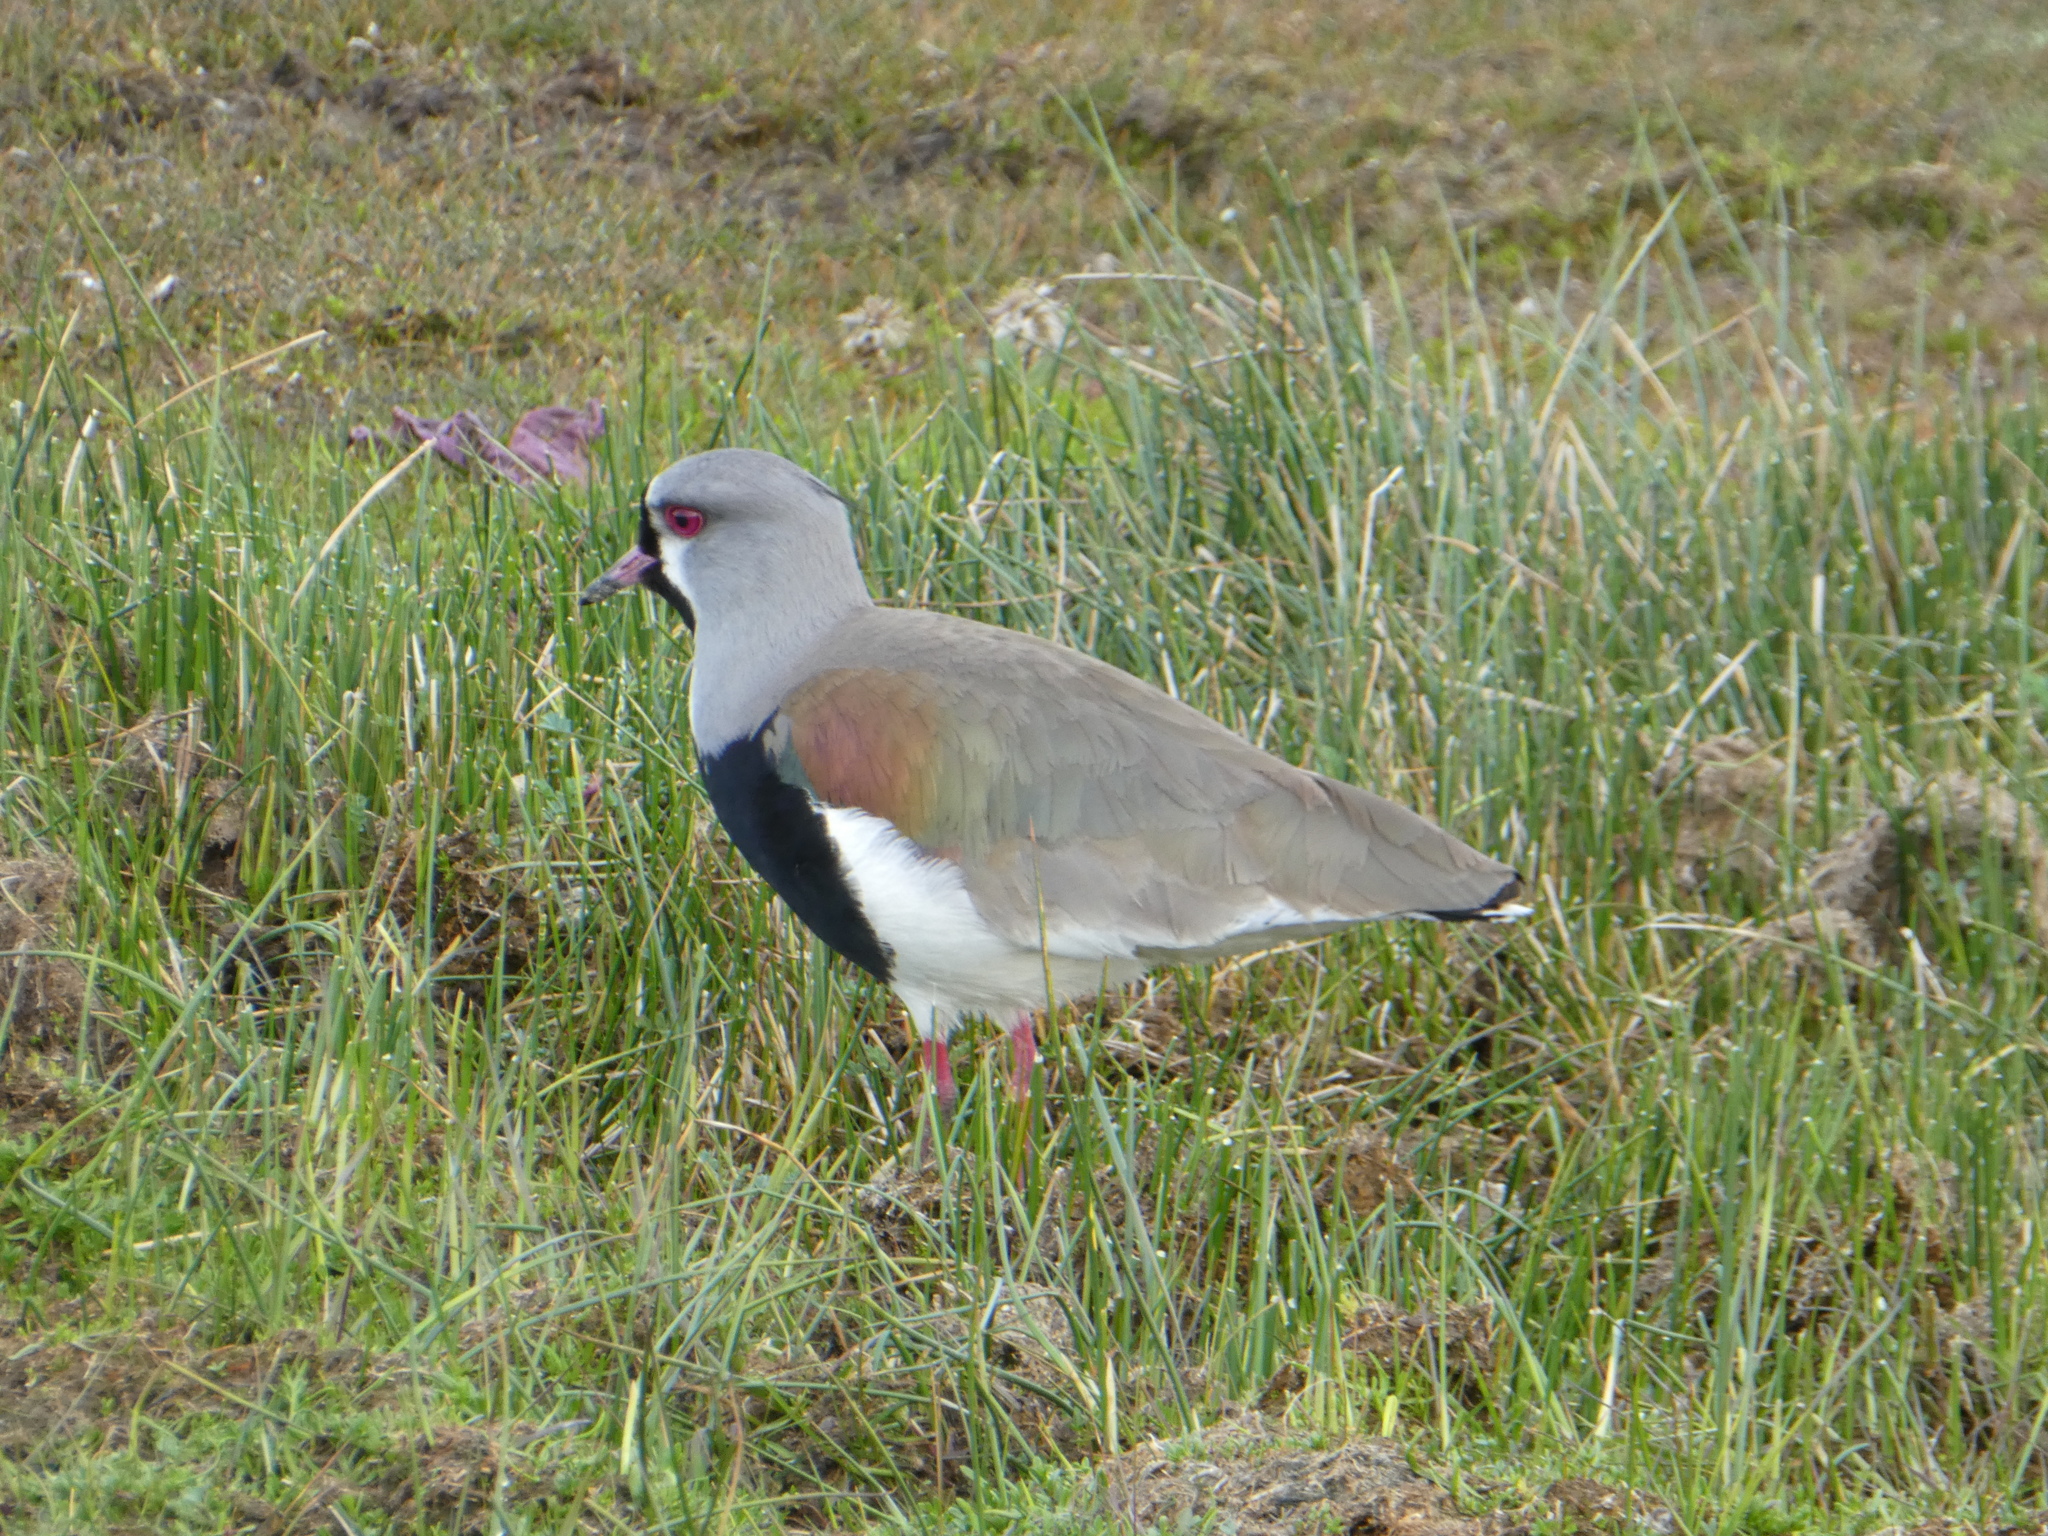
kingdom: Animalia
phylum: Chordata
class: Aves
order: Charadriiformes
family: Charadriidae
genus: Vanellus
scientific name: Vanellus chilensis
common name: Southern lapwing
